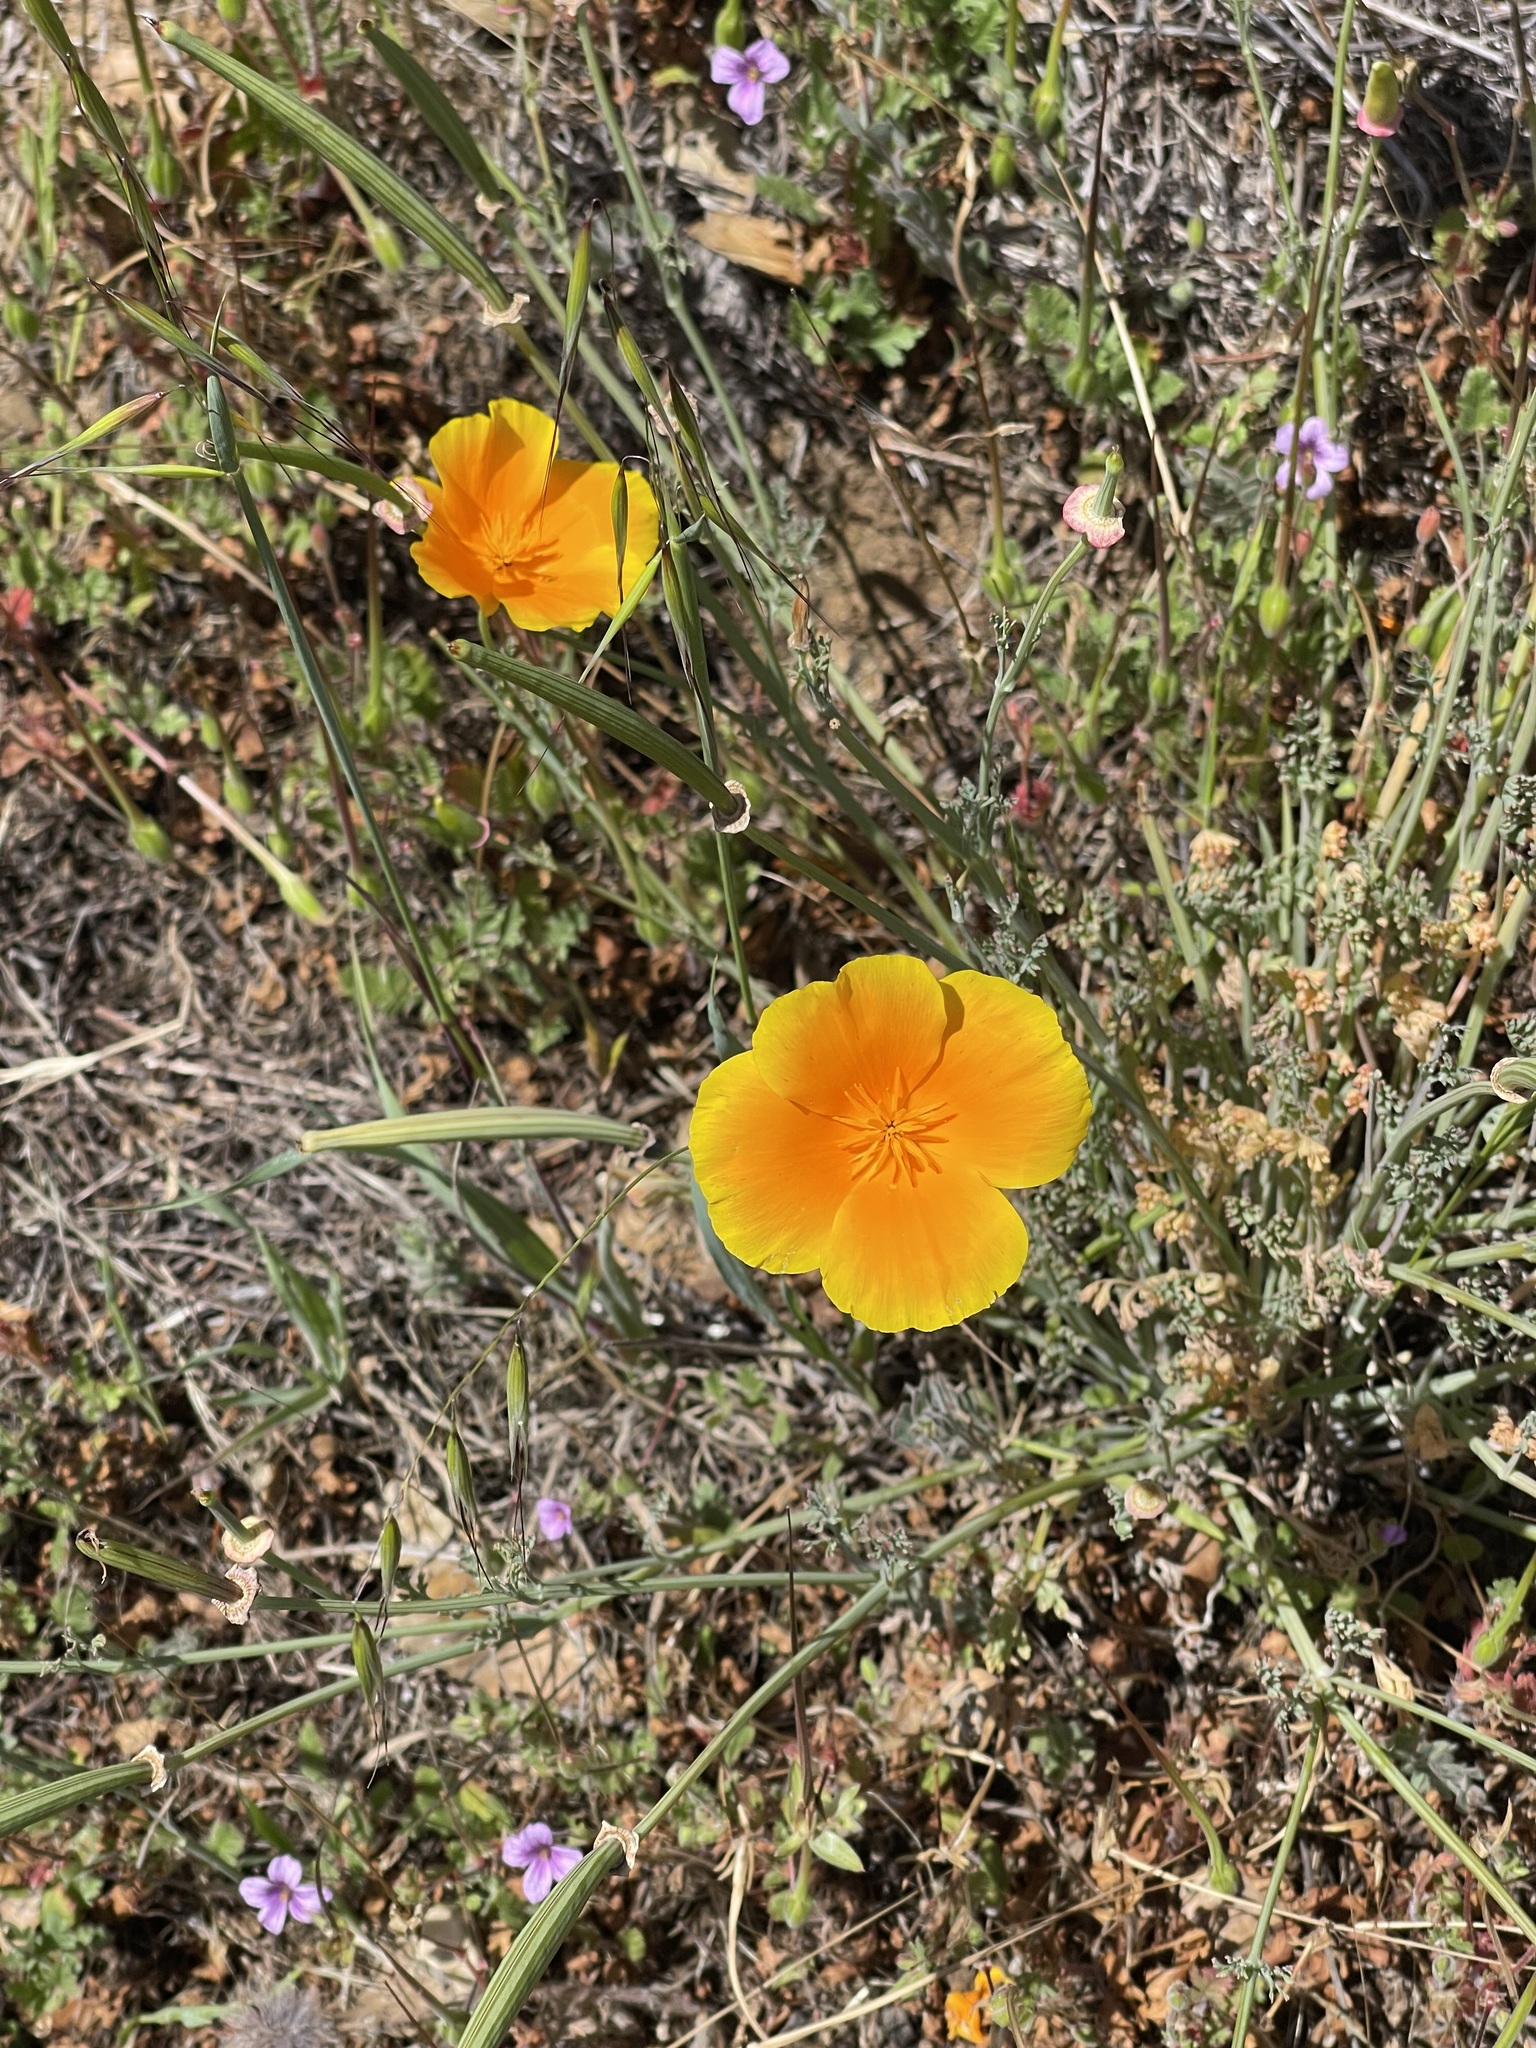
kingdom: Plantae
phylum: Tracheophyta
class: Magnoliopsida
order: Ranunculales
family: Papaveraceae
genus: Eschscholzia
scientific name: Eschscholzia californica
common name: California poppy
